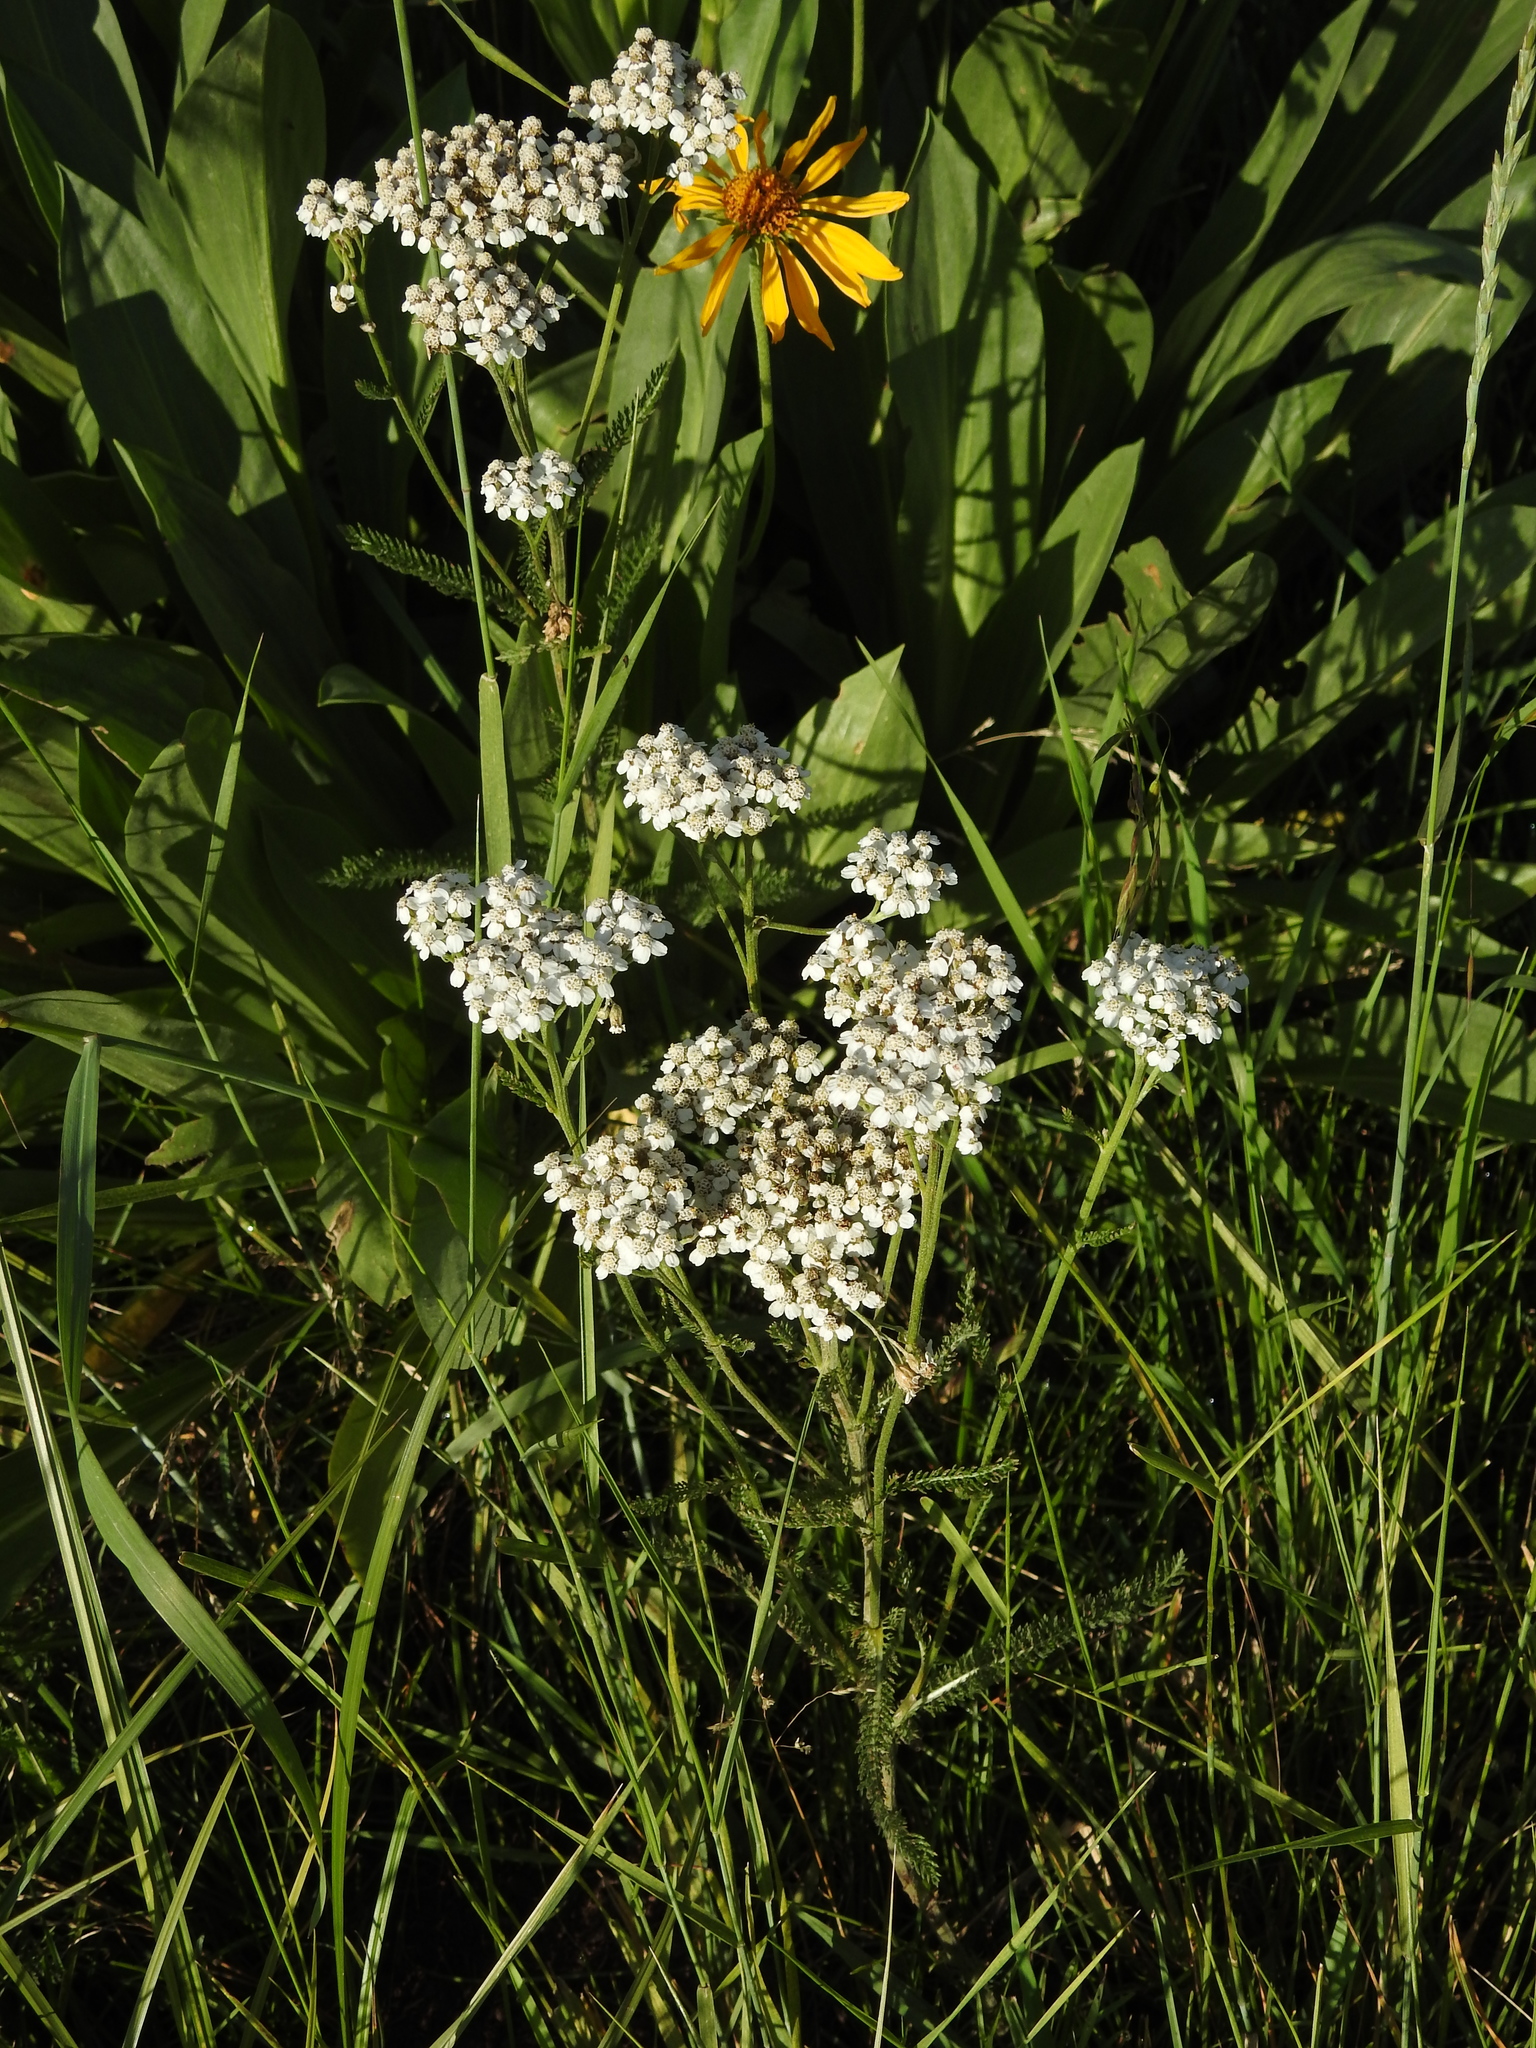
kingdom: Plantae
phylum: Tracheophyta
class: Magnoliopsida
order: Asterales
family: Asteraceae
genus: Achillea
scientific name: Achillea millefolium
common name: Yarrow
